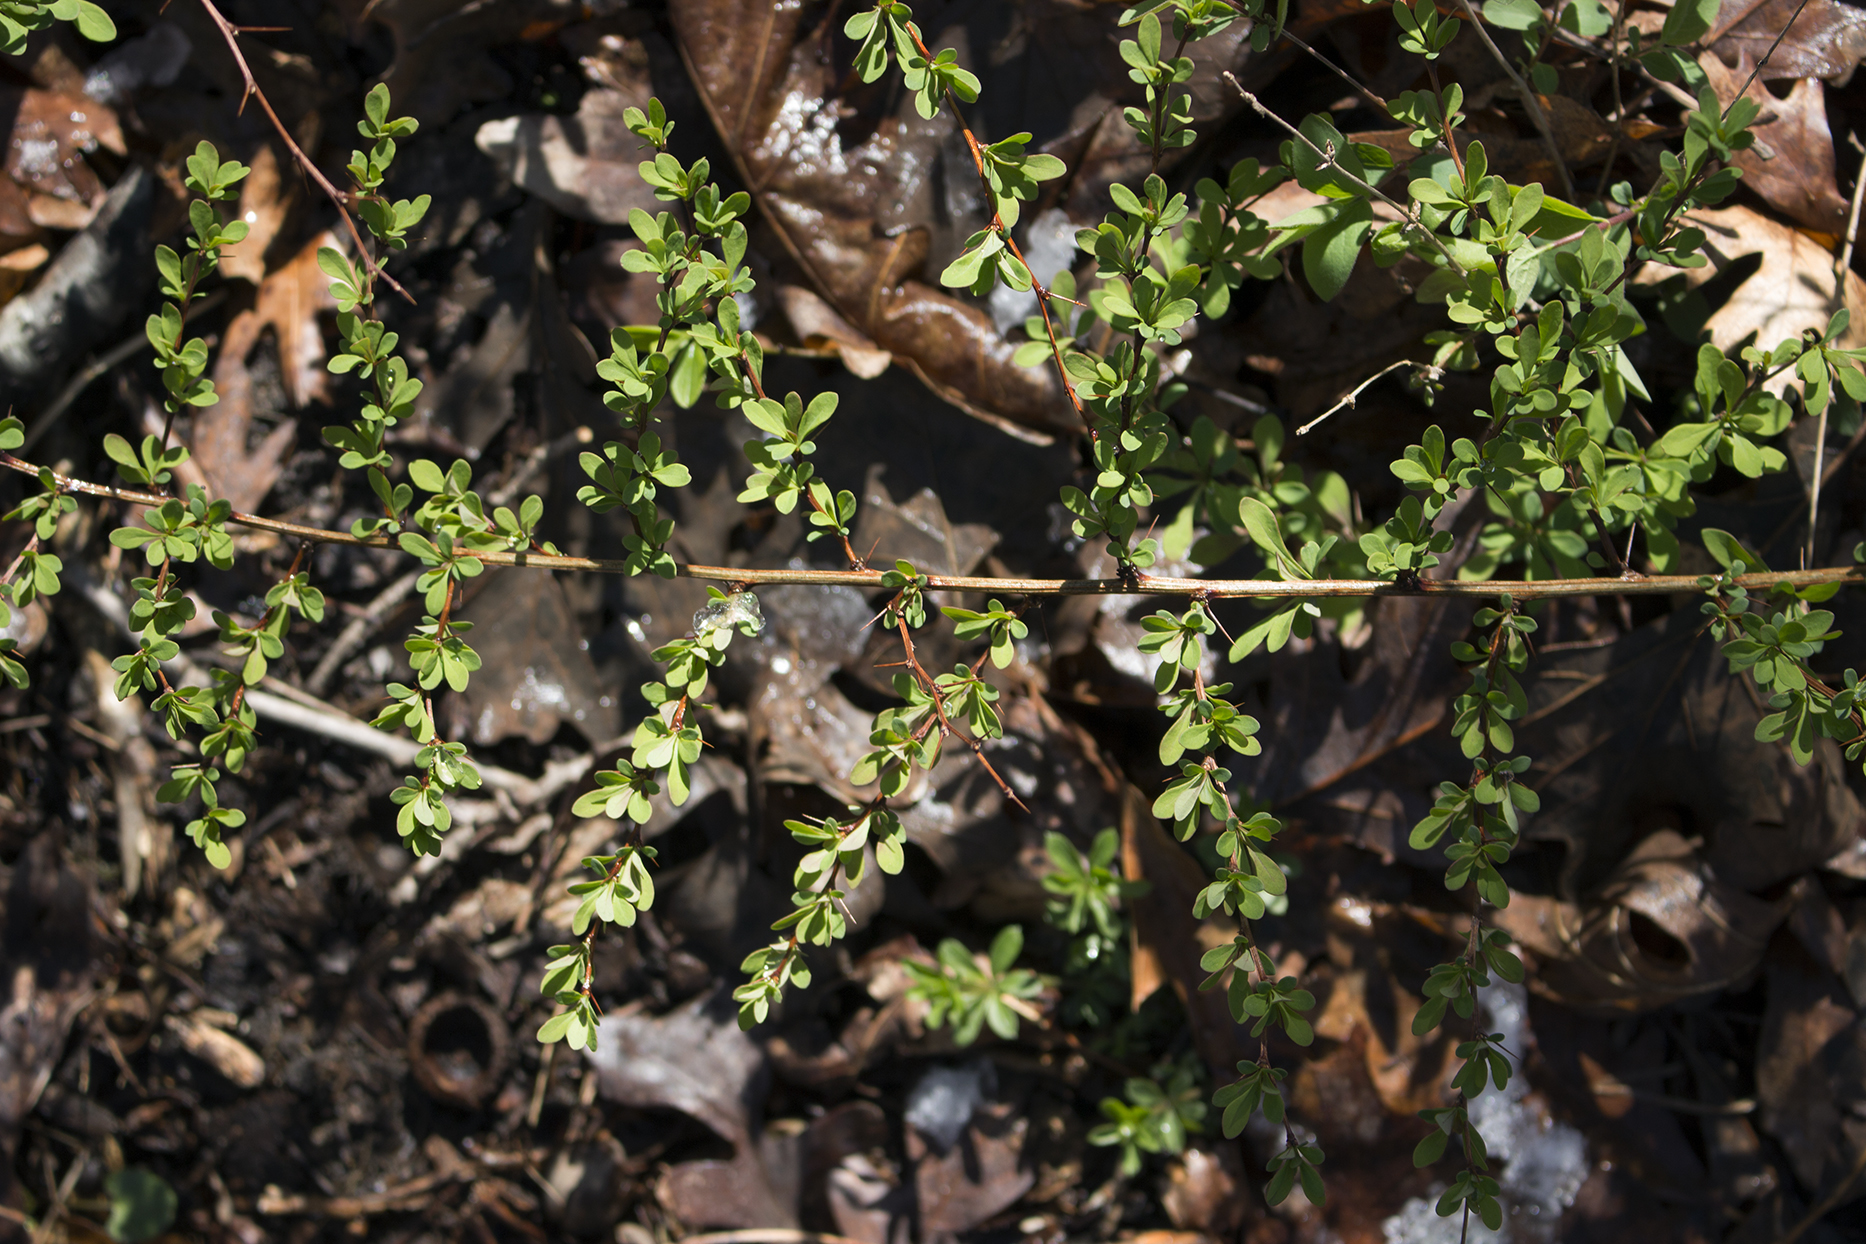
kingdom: Plantae
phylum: Tracheophyta
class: Magnoliopsida
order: Ranunculales
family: Berberidaceae
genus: Berberis
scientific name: Berberis thunbergii
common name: Japanese barberry
